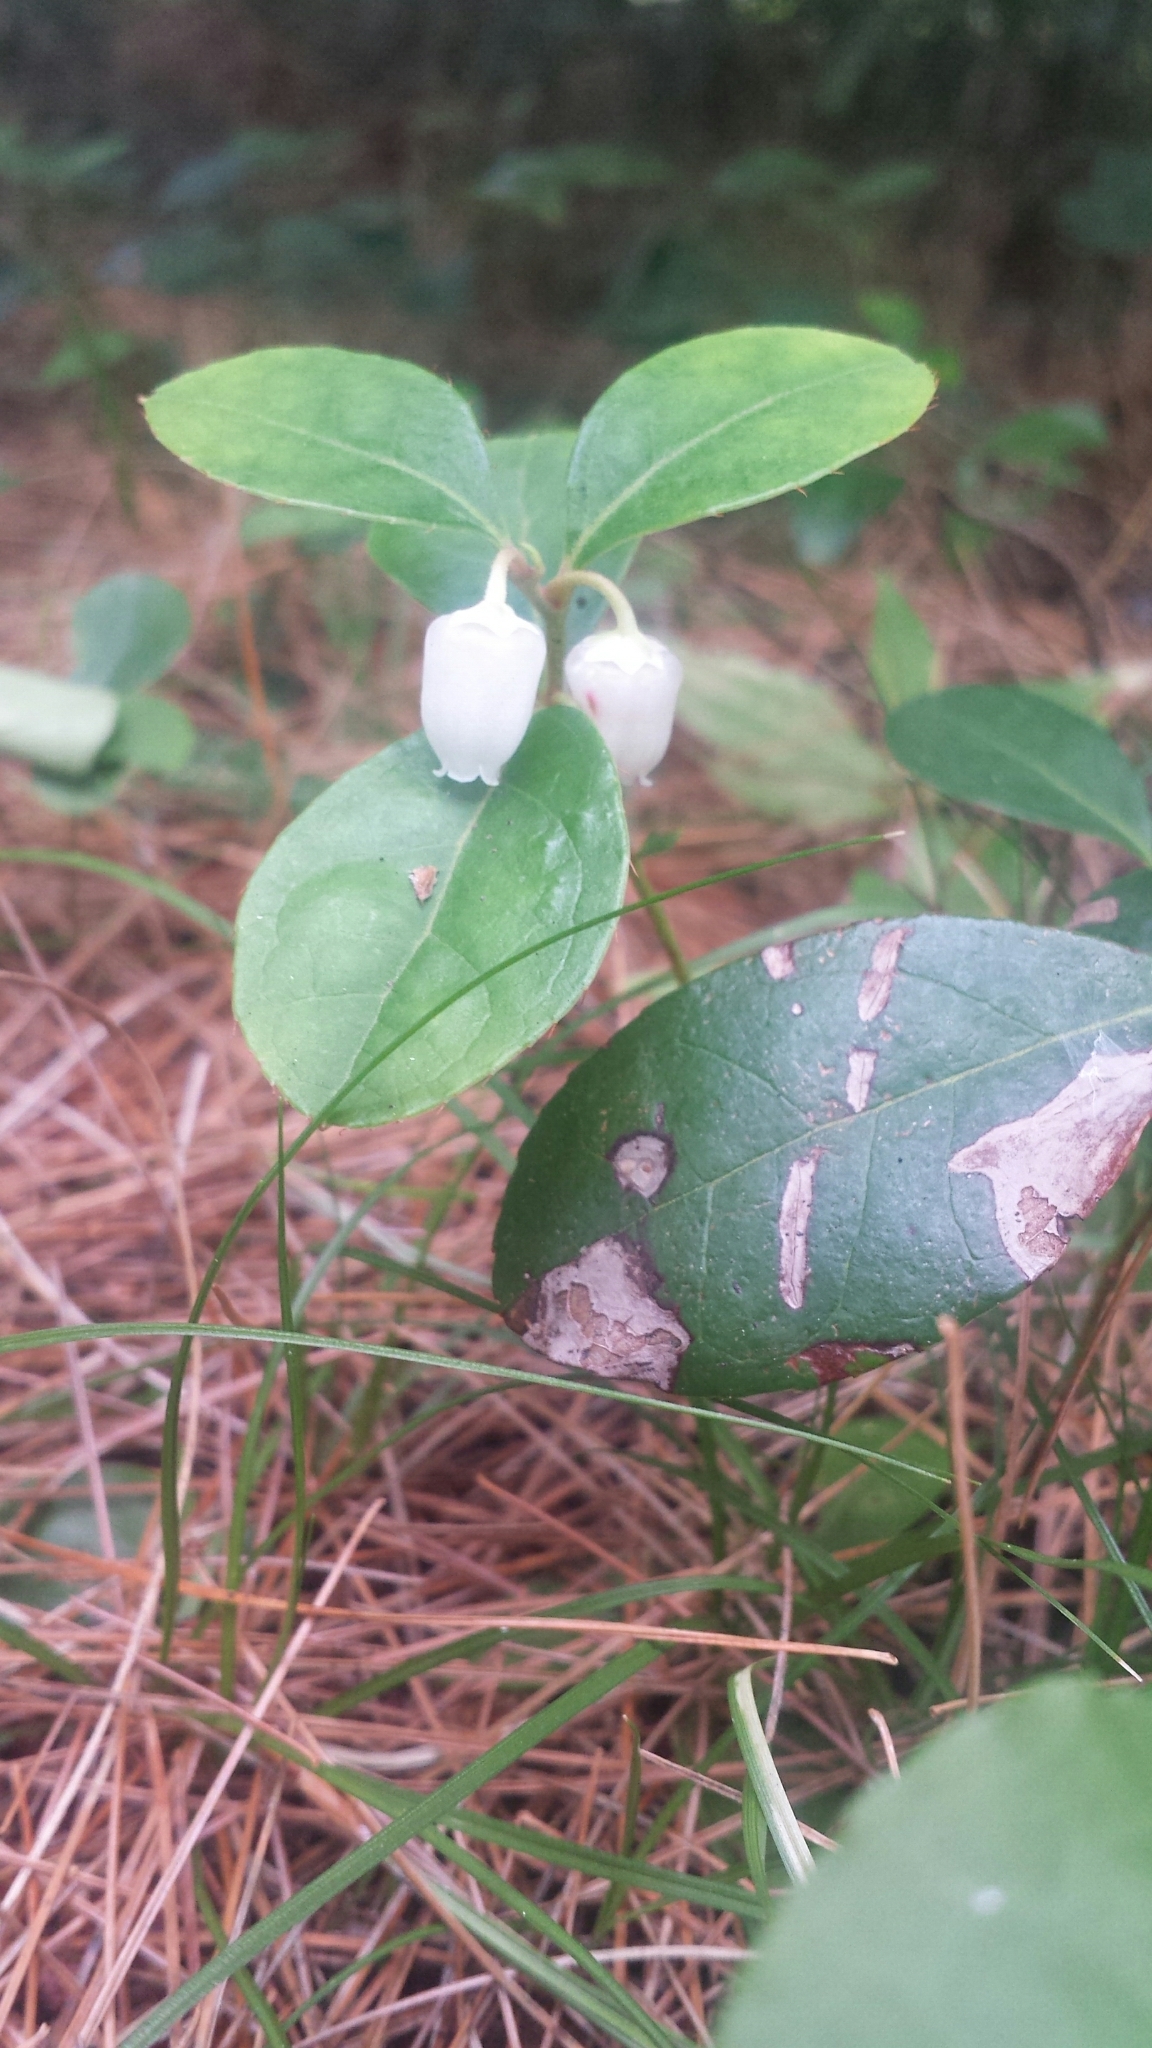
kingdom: Plantae
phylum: Tracheophyta
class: Magnoliopsida
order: Ericales
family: Ericaceae
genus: Gaultheria
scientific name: Gaultheria procumbens
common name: Checkerberry
